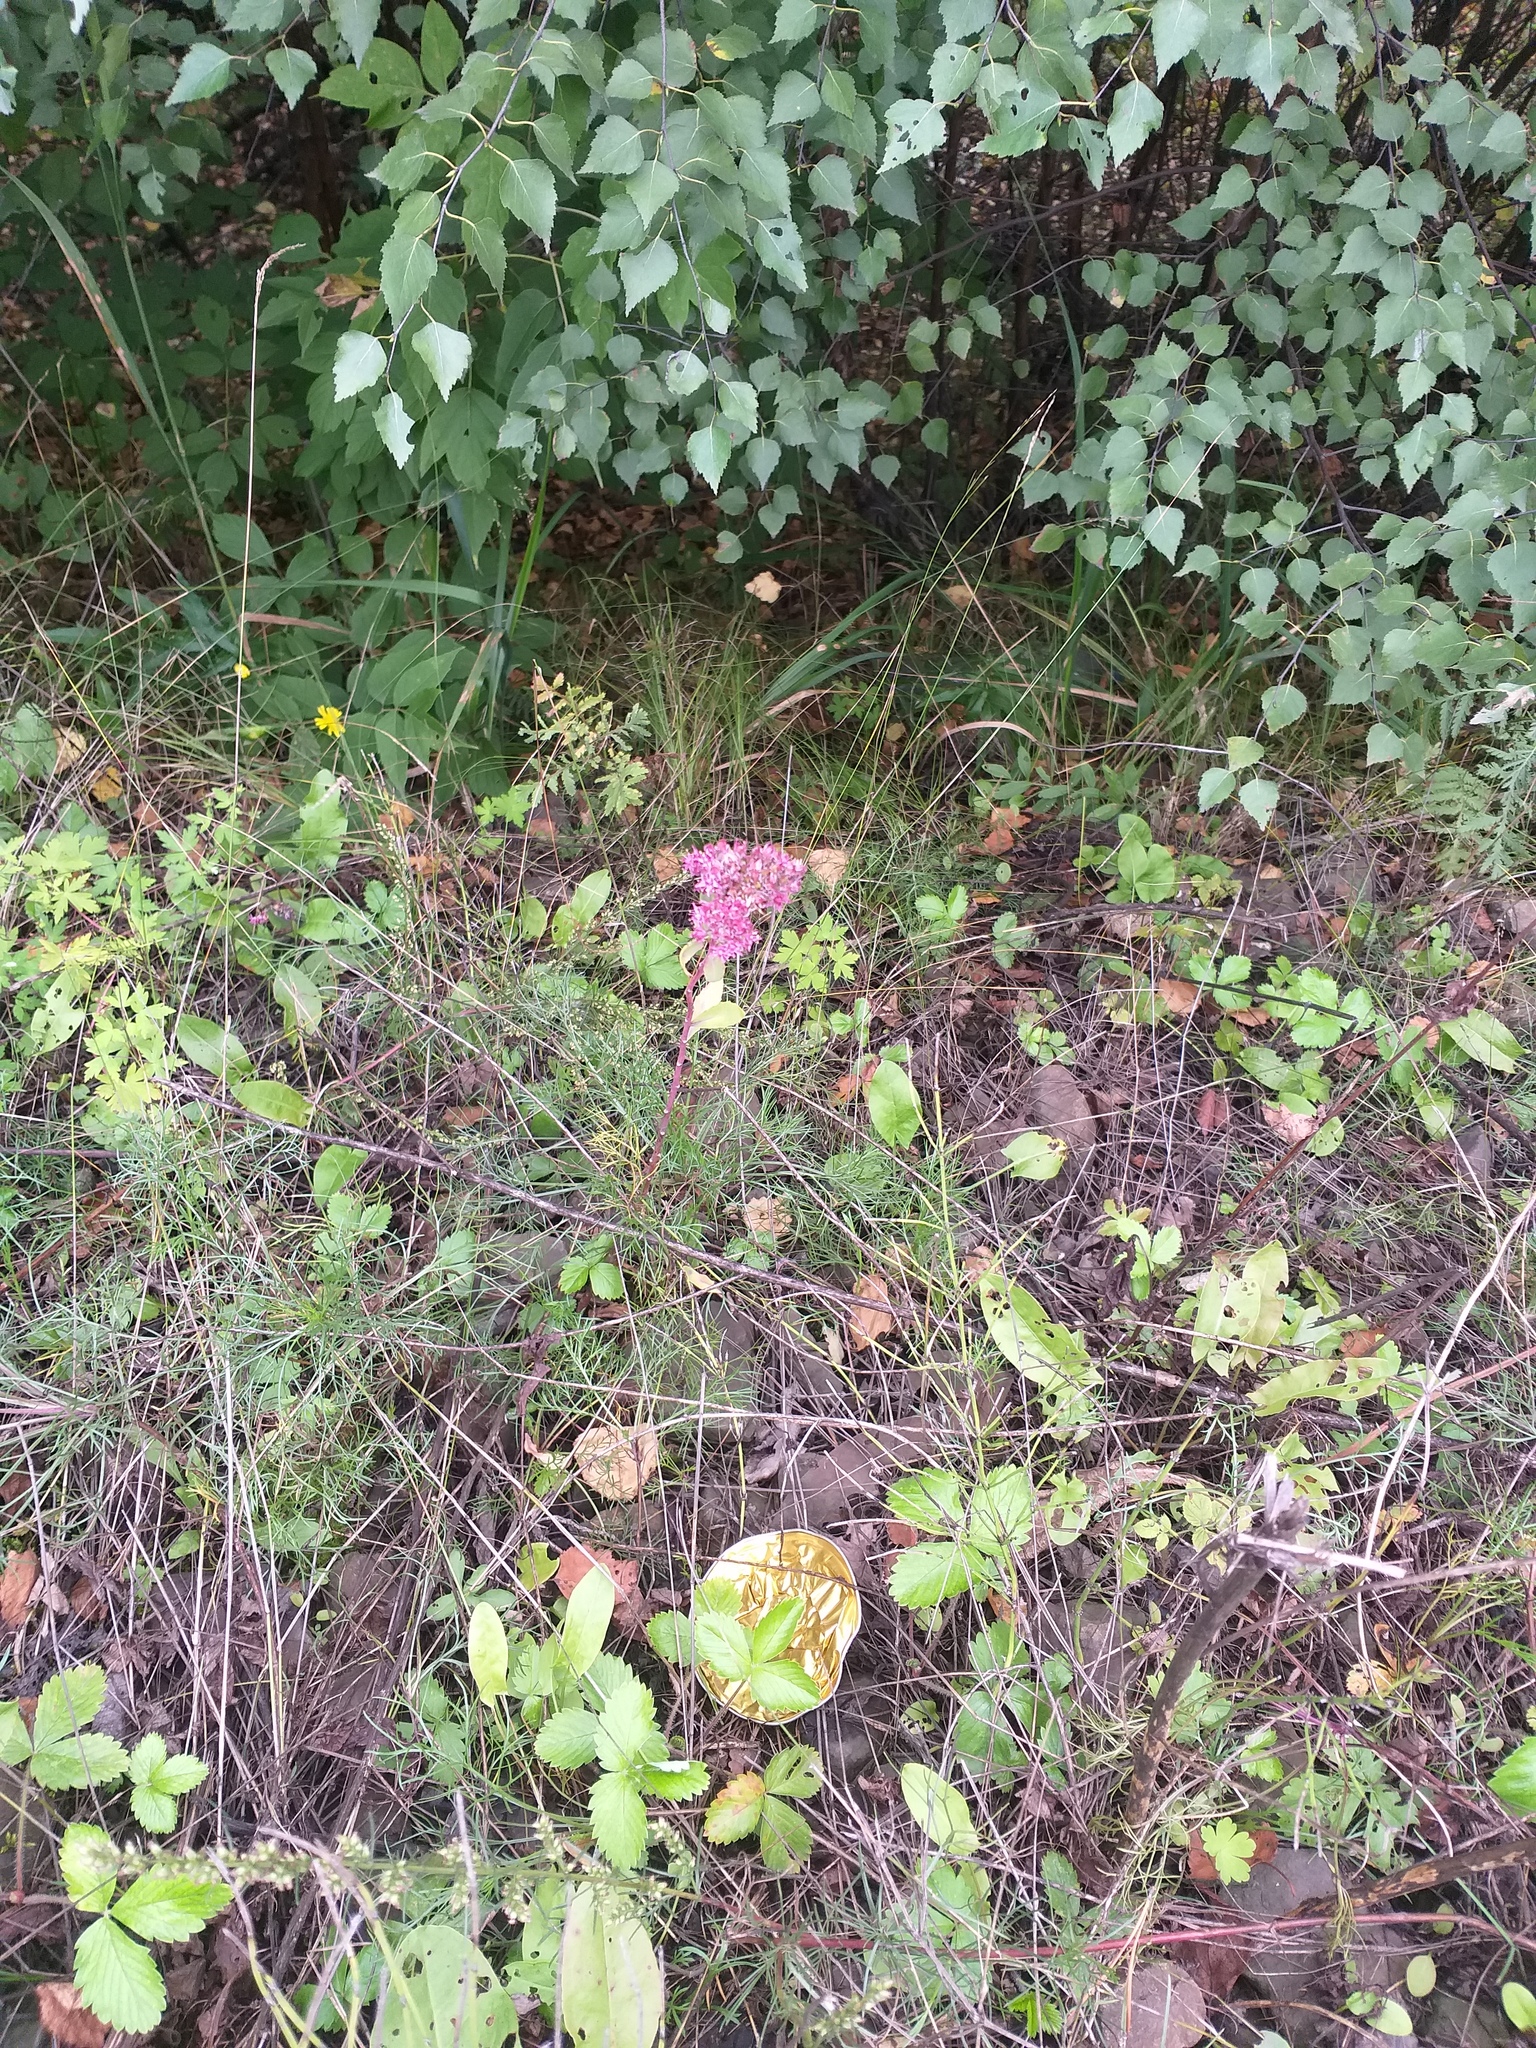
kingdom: Plantae
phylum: Tracheophyta
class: Magnoliopsida
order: Saxifragales
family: Crassulaceae
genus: Hylotelephium
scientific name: Hylotelephium telephium
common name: Live-forever
